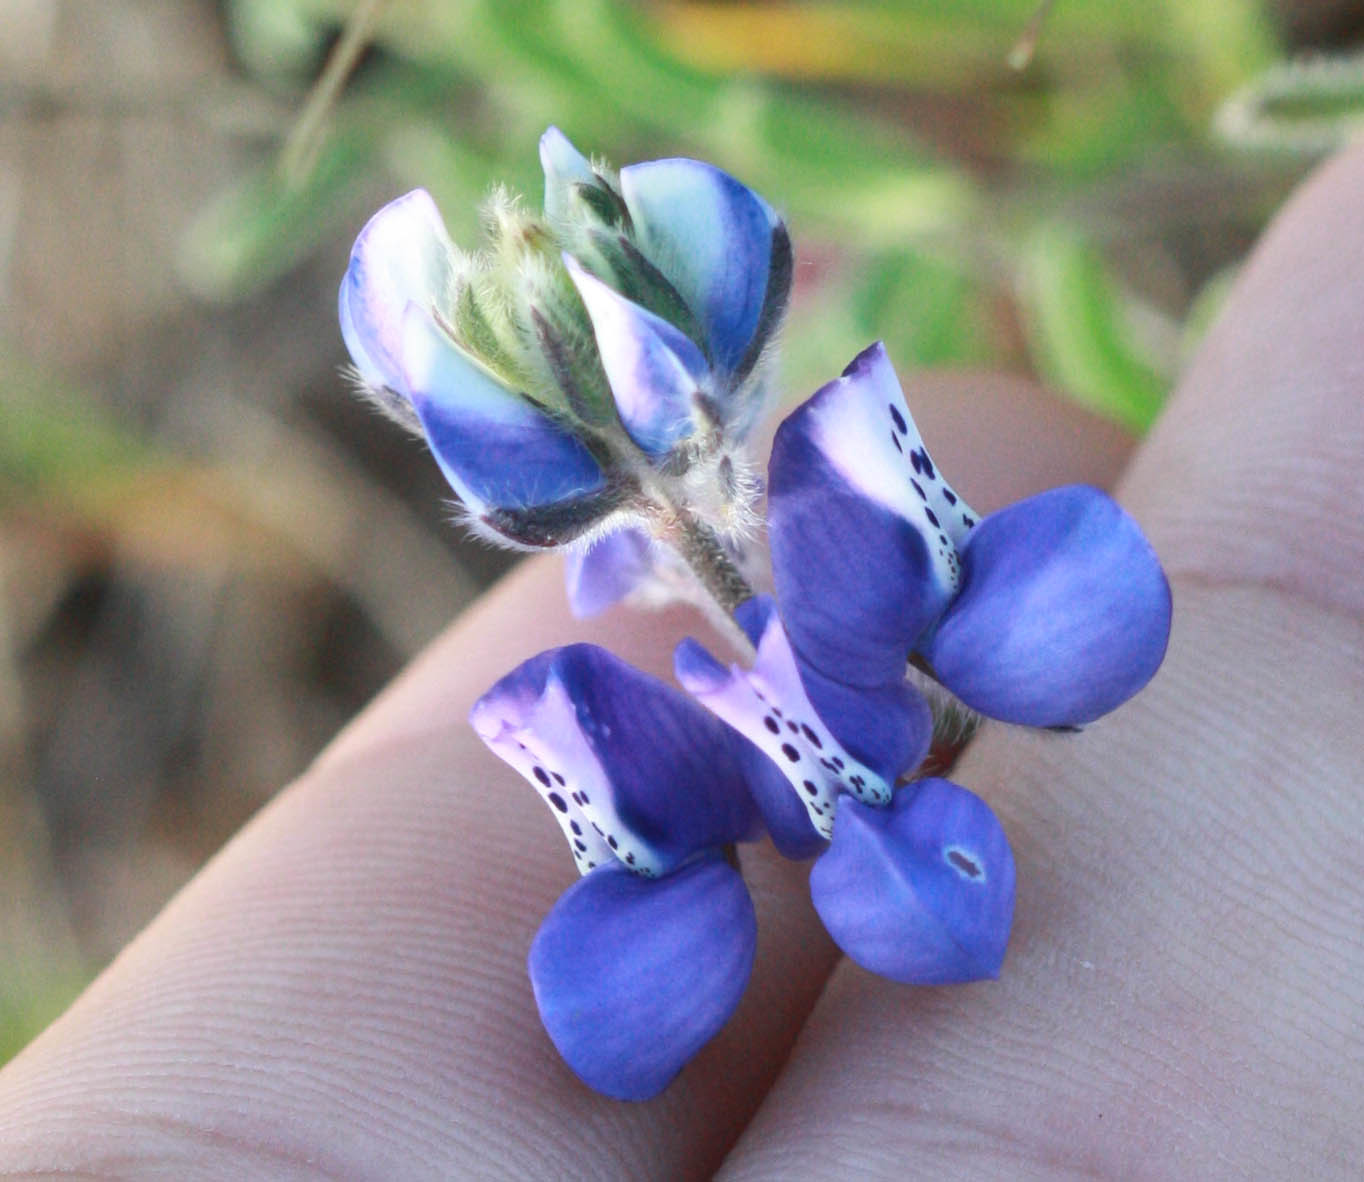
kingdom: Plantae
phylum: Tracheophyta
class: Magnoliopsida
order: Fabales
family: Fabaceae
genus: Lupinus
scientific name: Lupinus nanus
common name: Orean blue lupin
